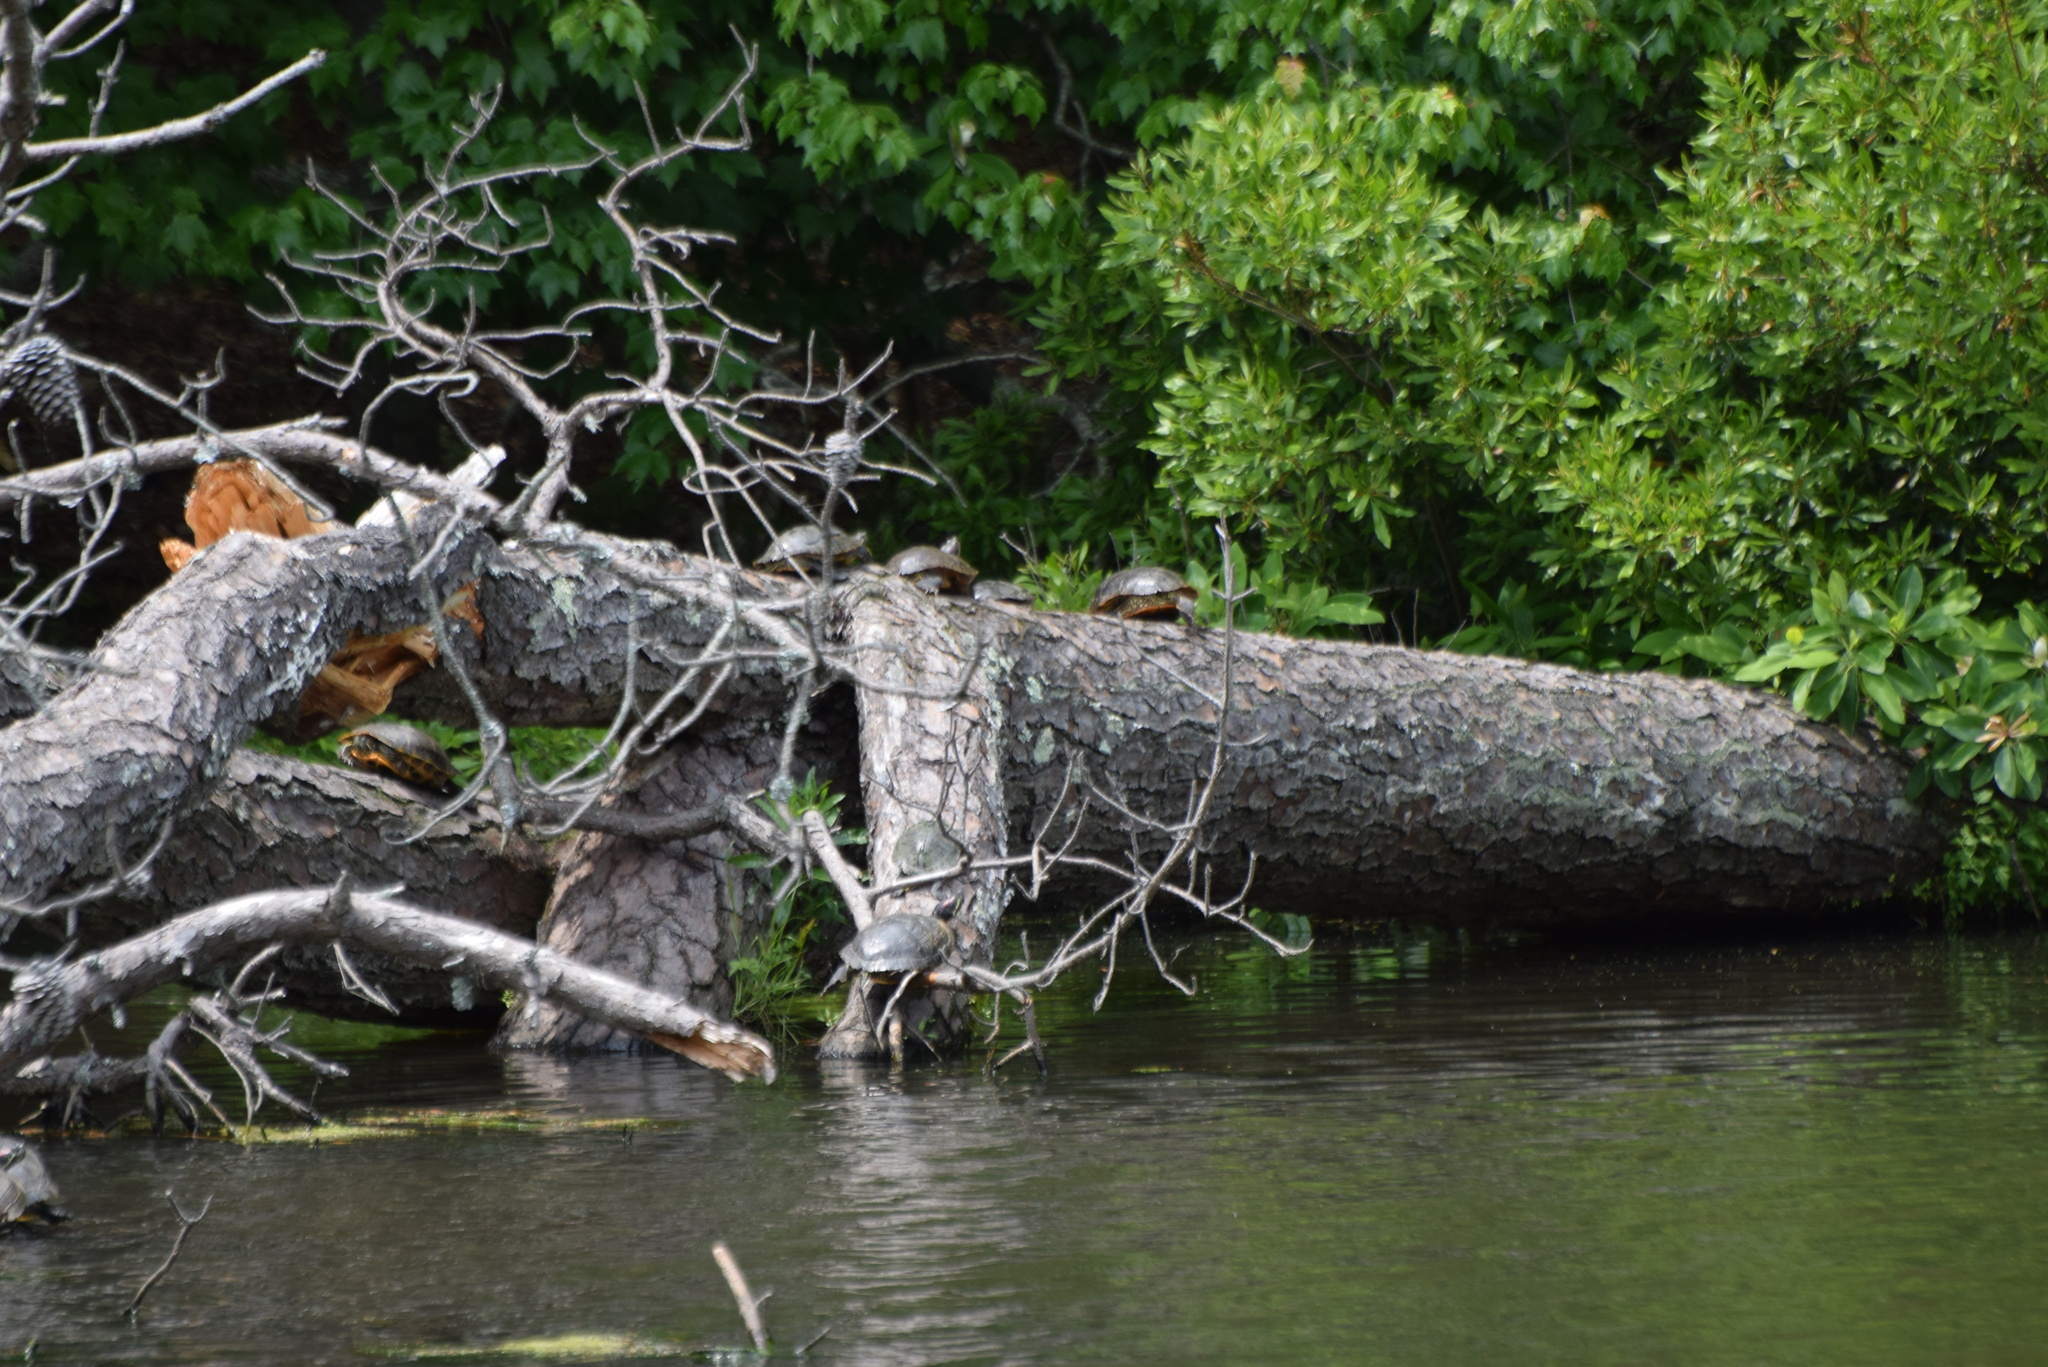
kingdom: Animalia
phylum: Chordata
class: Testudines
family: Emydidae
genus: Trachemys
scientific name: Trachemys scripta
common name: Slider
